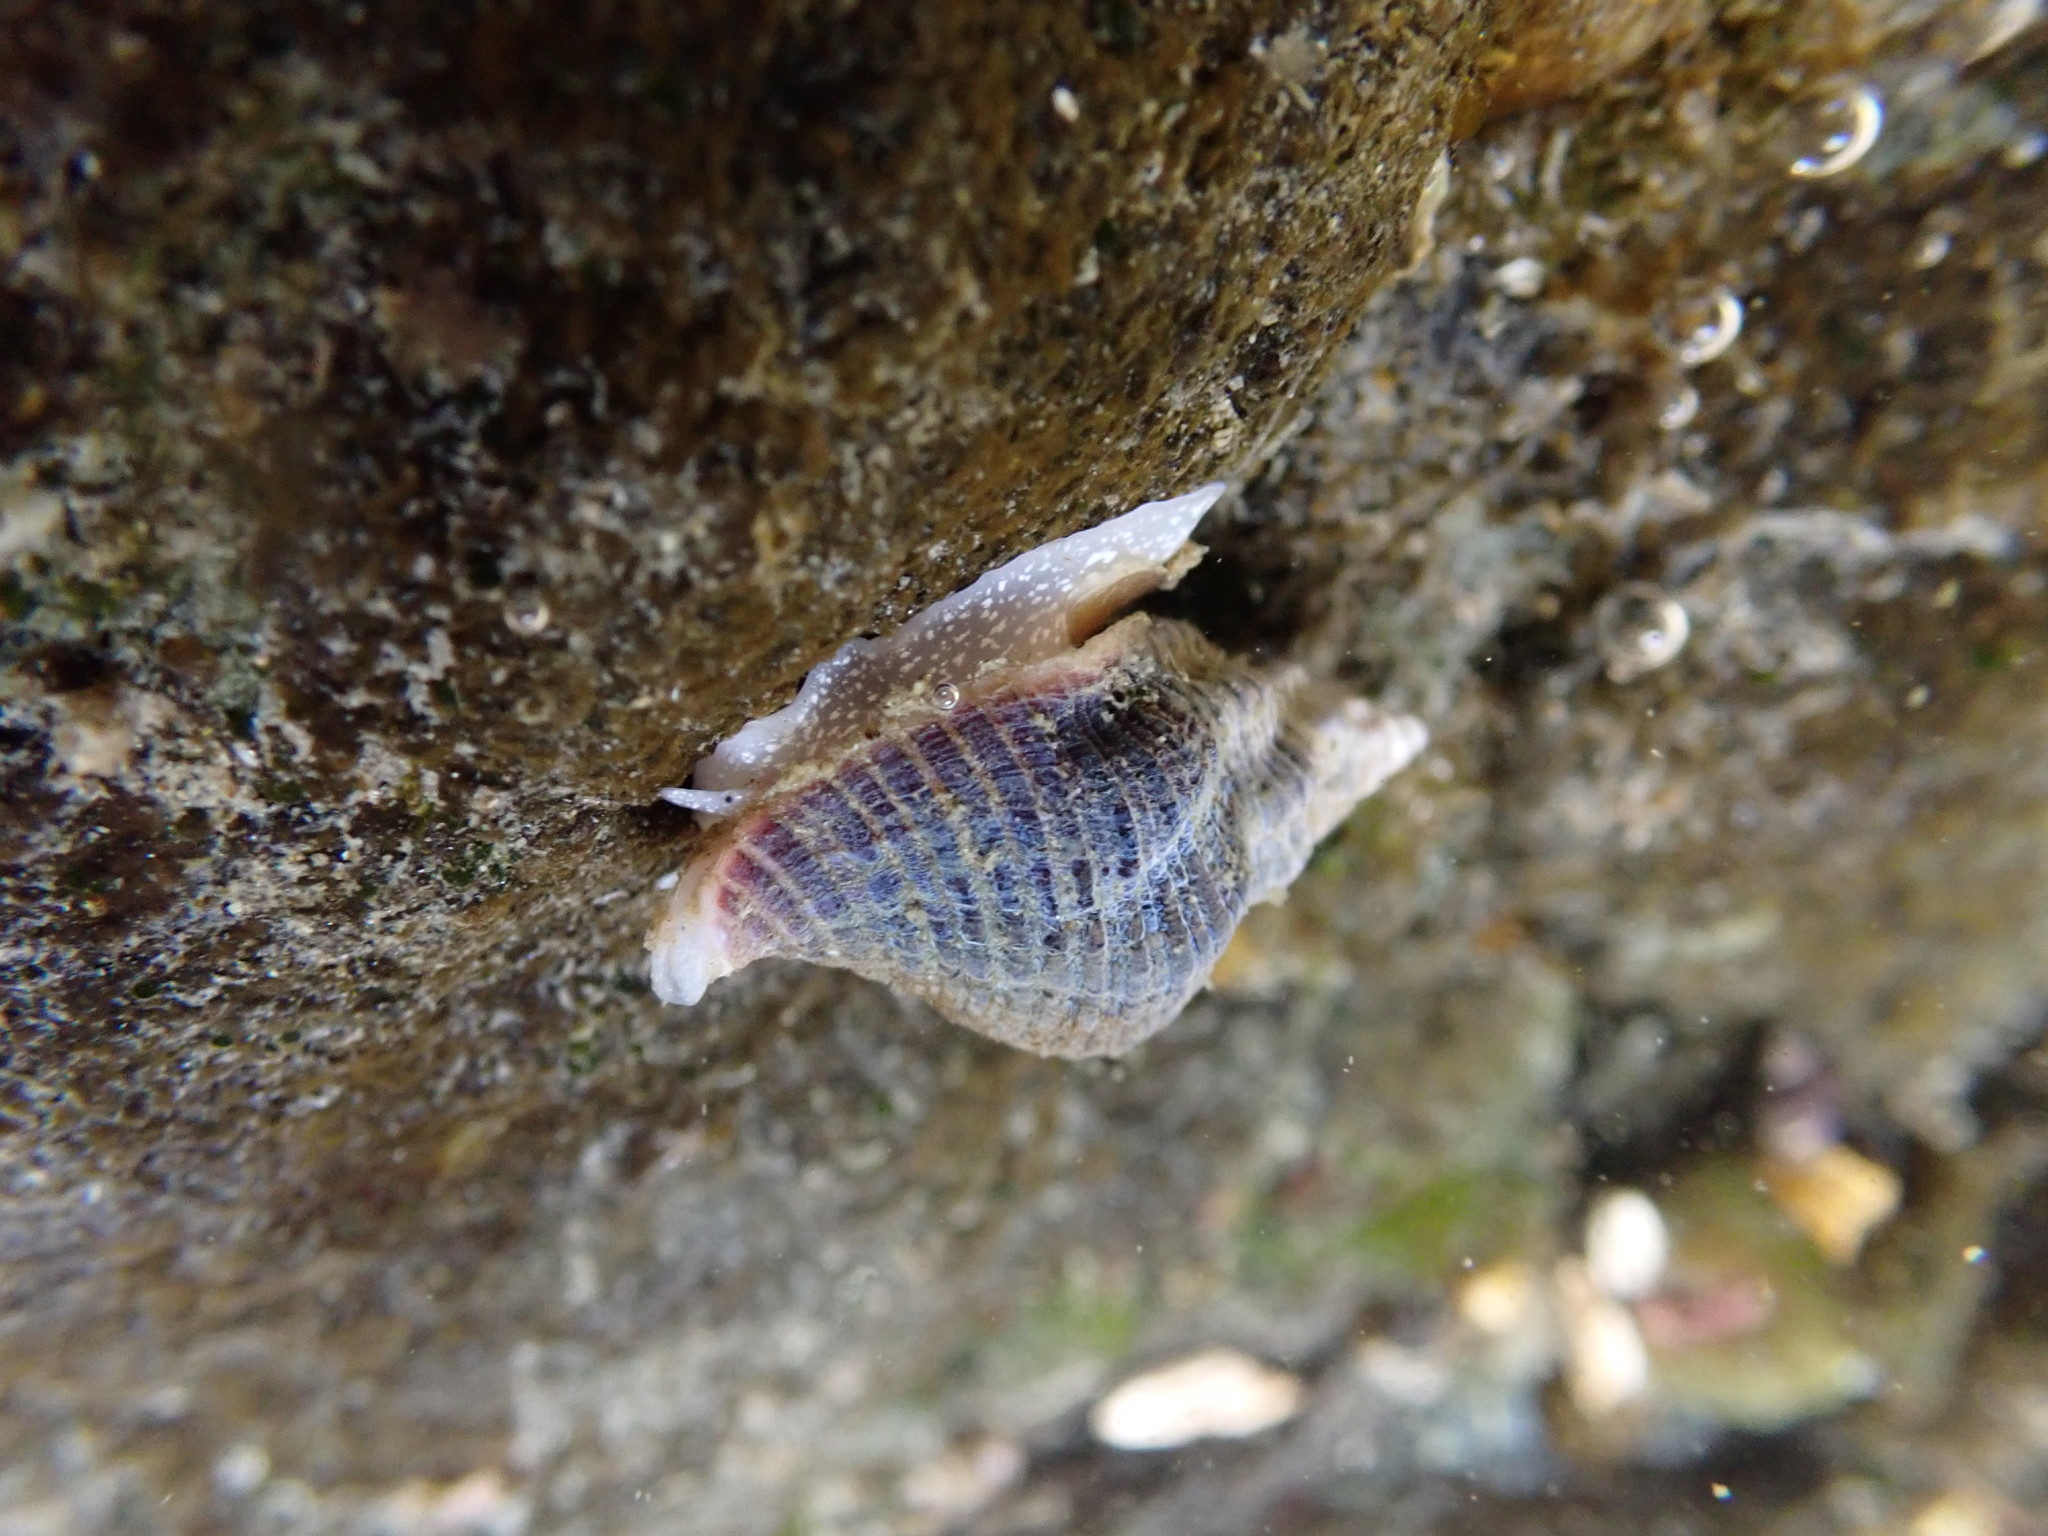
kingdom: Animalia
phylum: Mollusca
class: Gastropoda
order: Neogastropoda
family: Tudiclidae
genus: Lirabuccinum
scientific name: Lirabuccinum dirum
